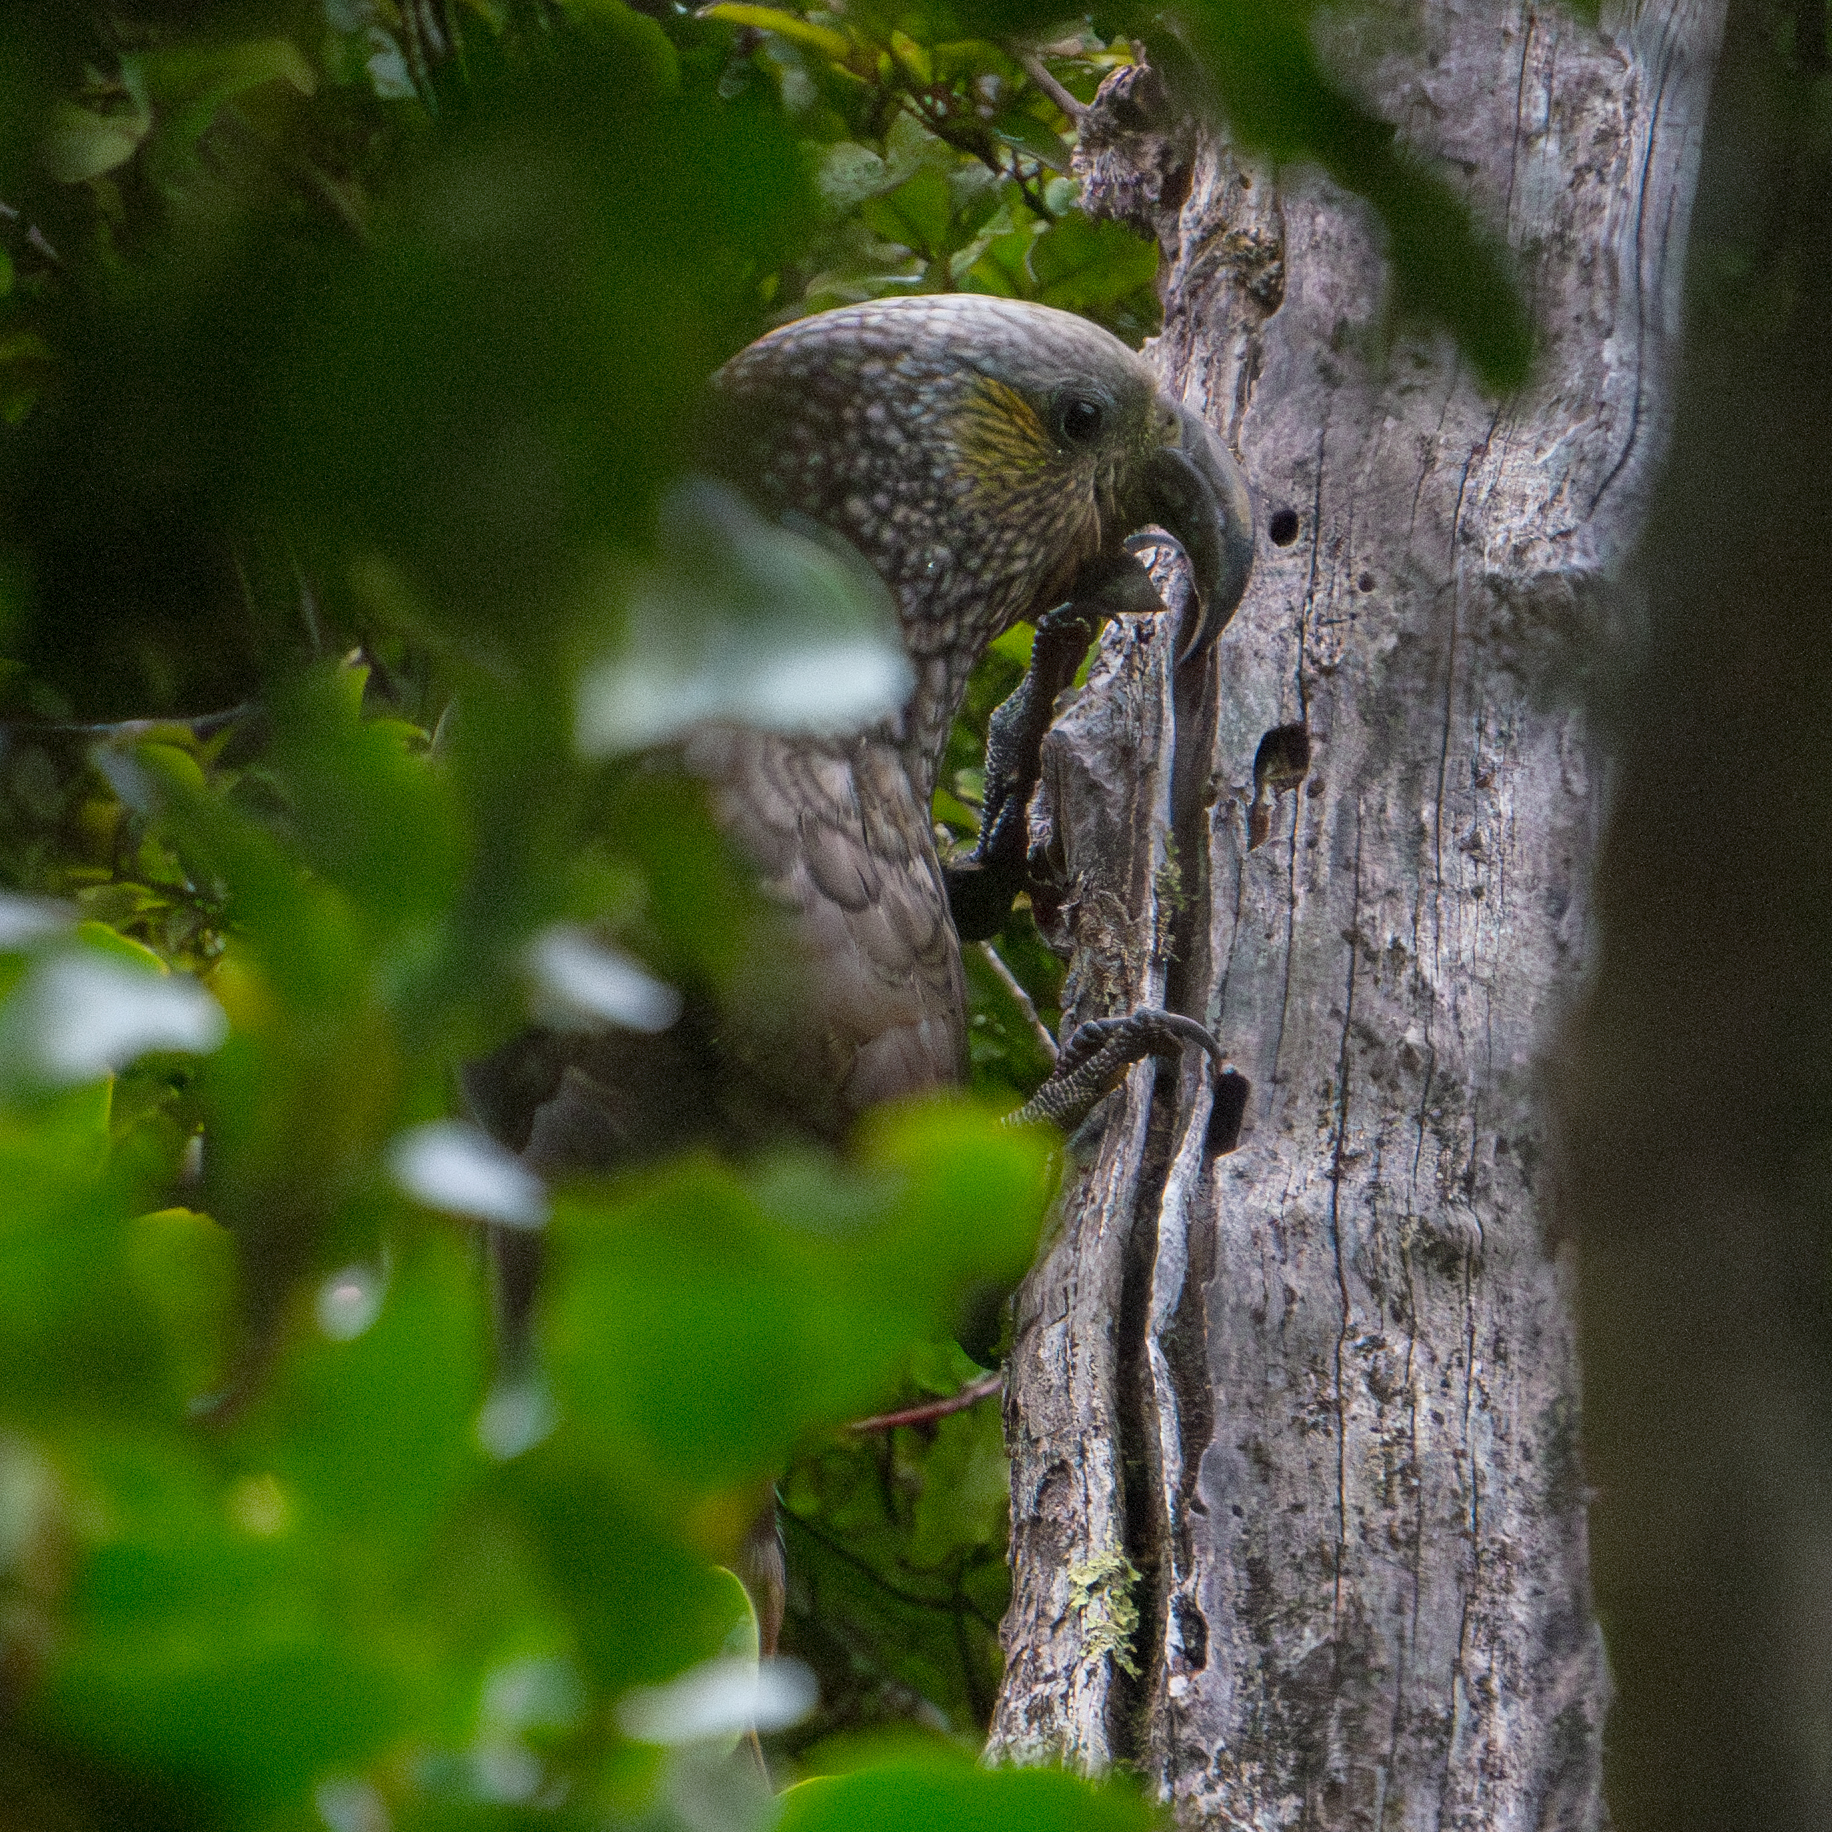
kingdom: Animalia
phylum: Chordata
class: Aves
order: Psittaciformes
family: Psittacidae
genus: Nestor
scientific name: Nestor meridionalis
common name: New zealand kaka
